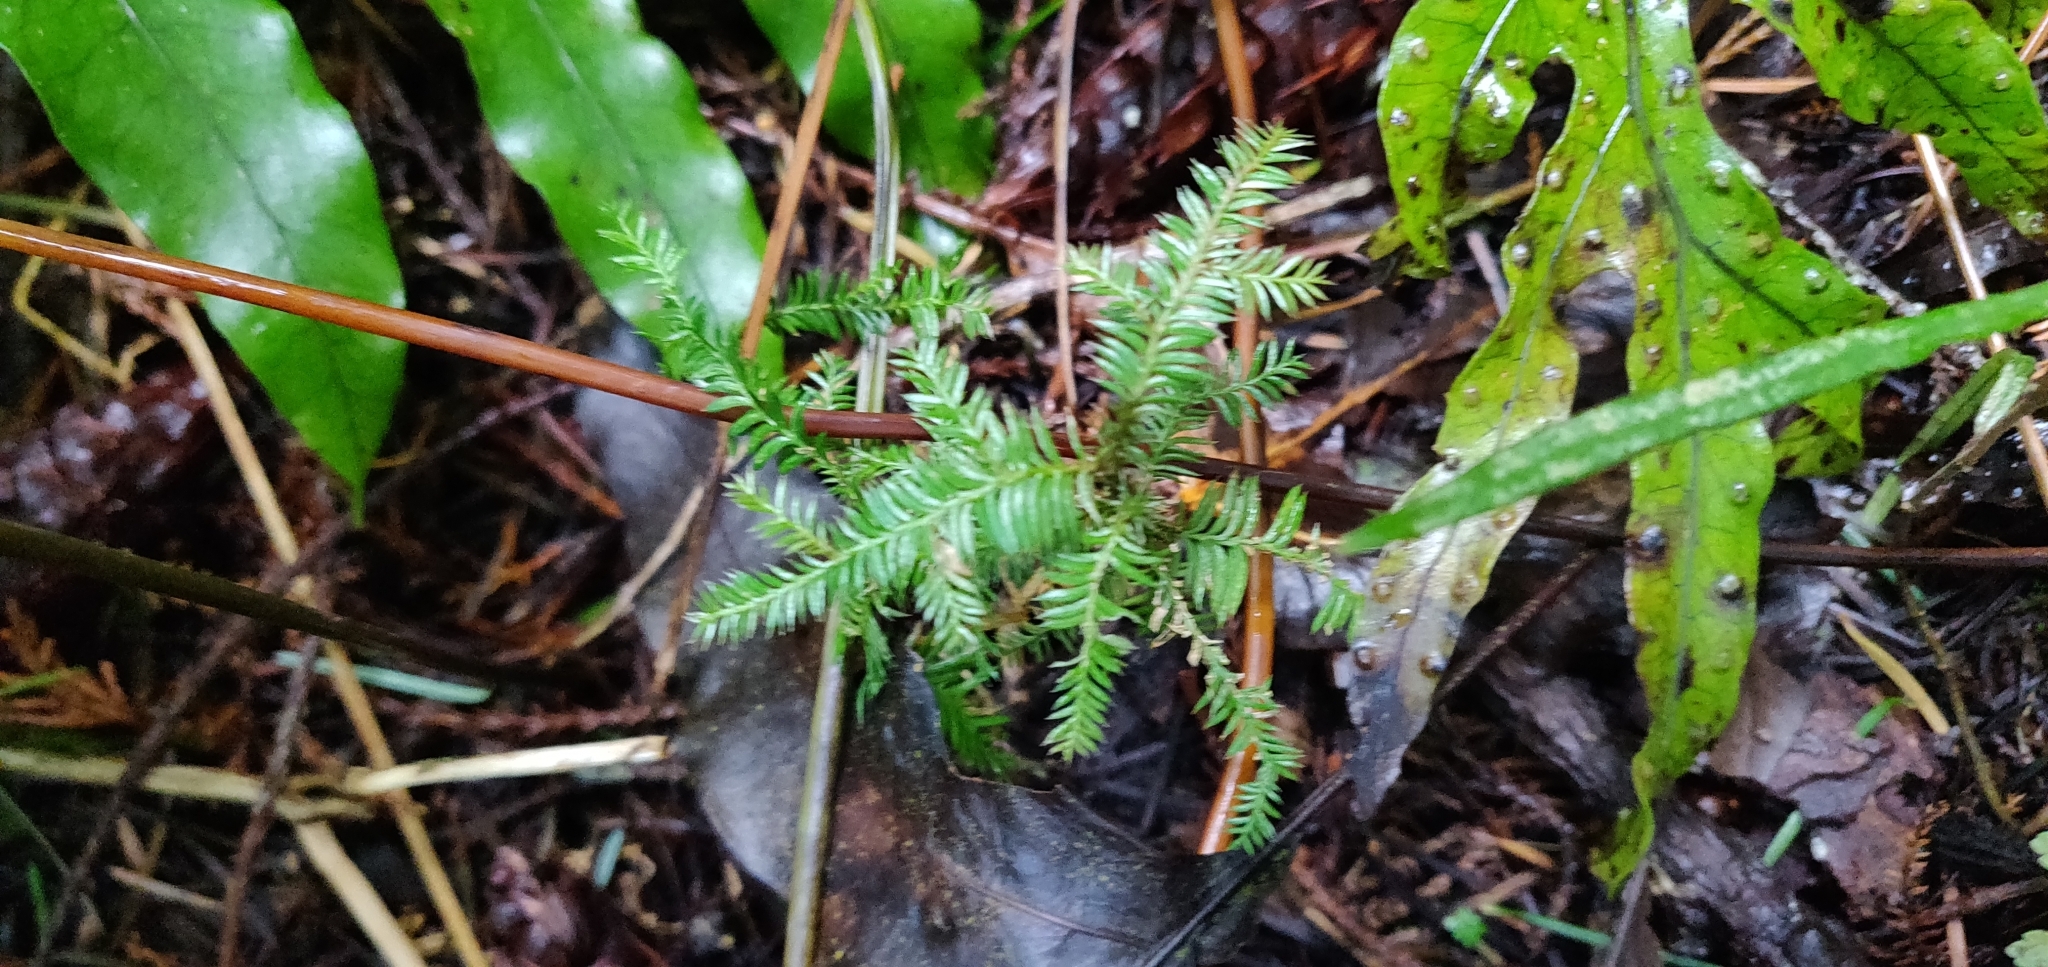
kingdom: Plantae
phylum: Tracheophyta
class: Pinopsida
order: Pinales
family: Podocarpaceae
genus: Dacrycarpus
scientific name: Dacrycarpus dacrydioides
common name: White pine
